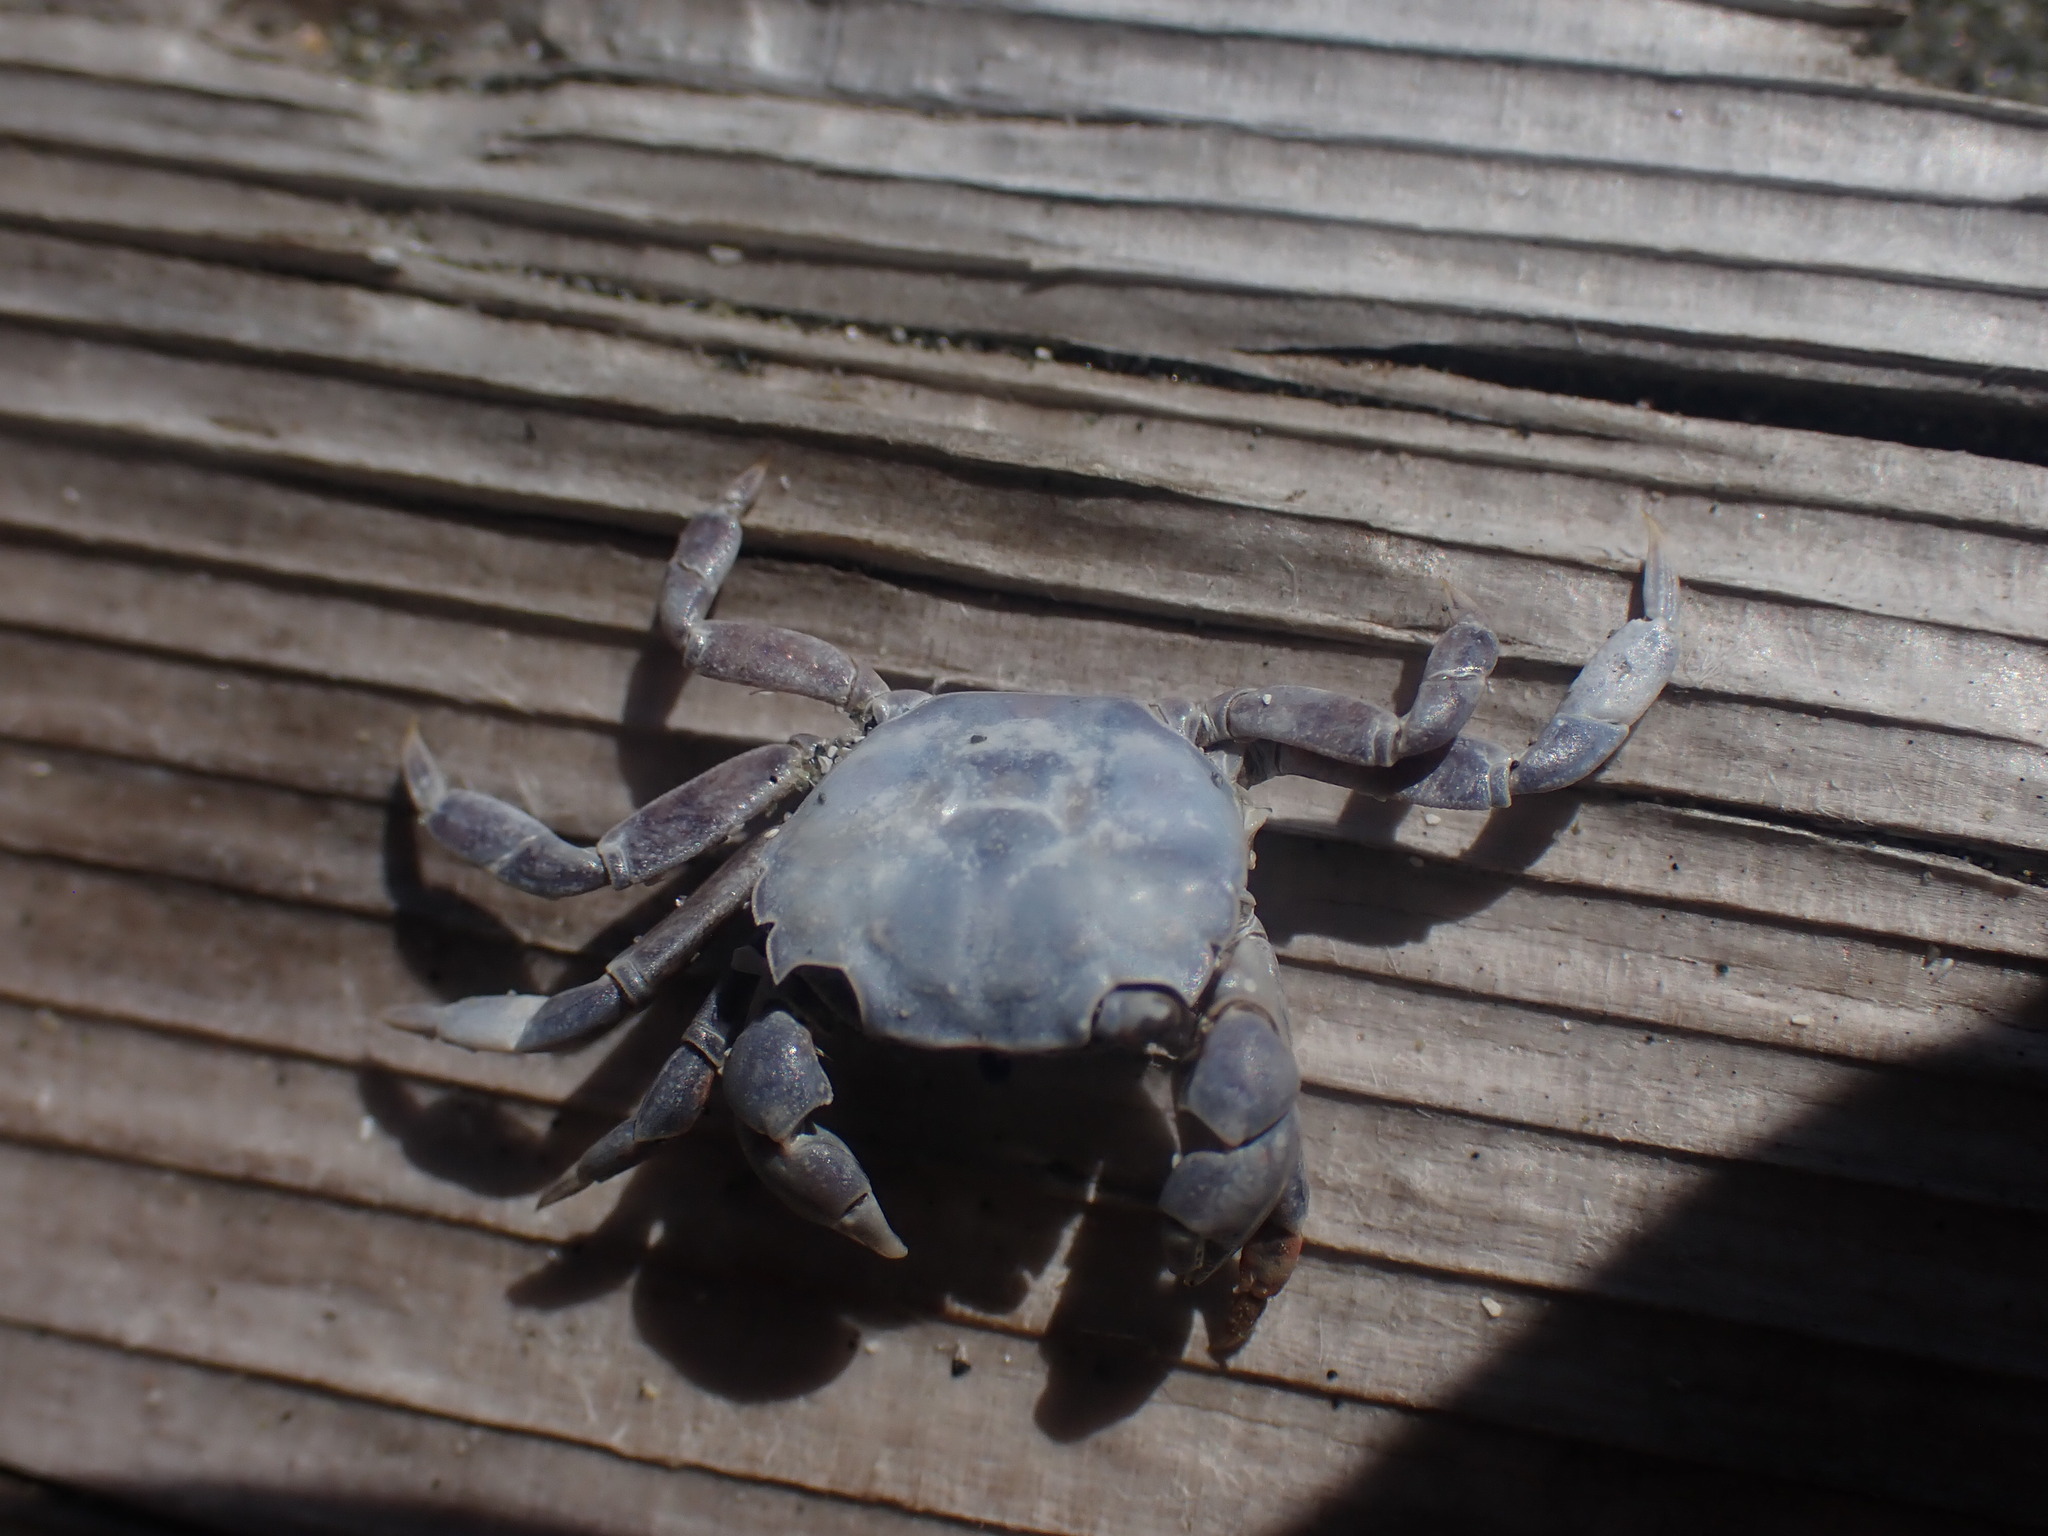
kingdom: Animalia
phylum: Arthropoda
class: Malacostraca
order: Decapoda
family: Varunidae
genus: Hemigrapsus
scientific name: Hemigrapsus nudus
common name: Purple shore crab
